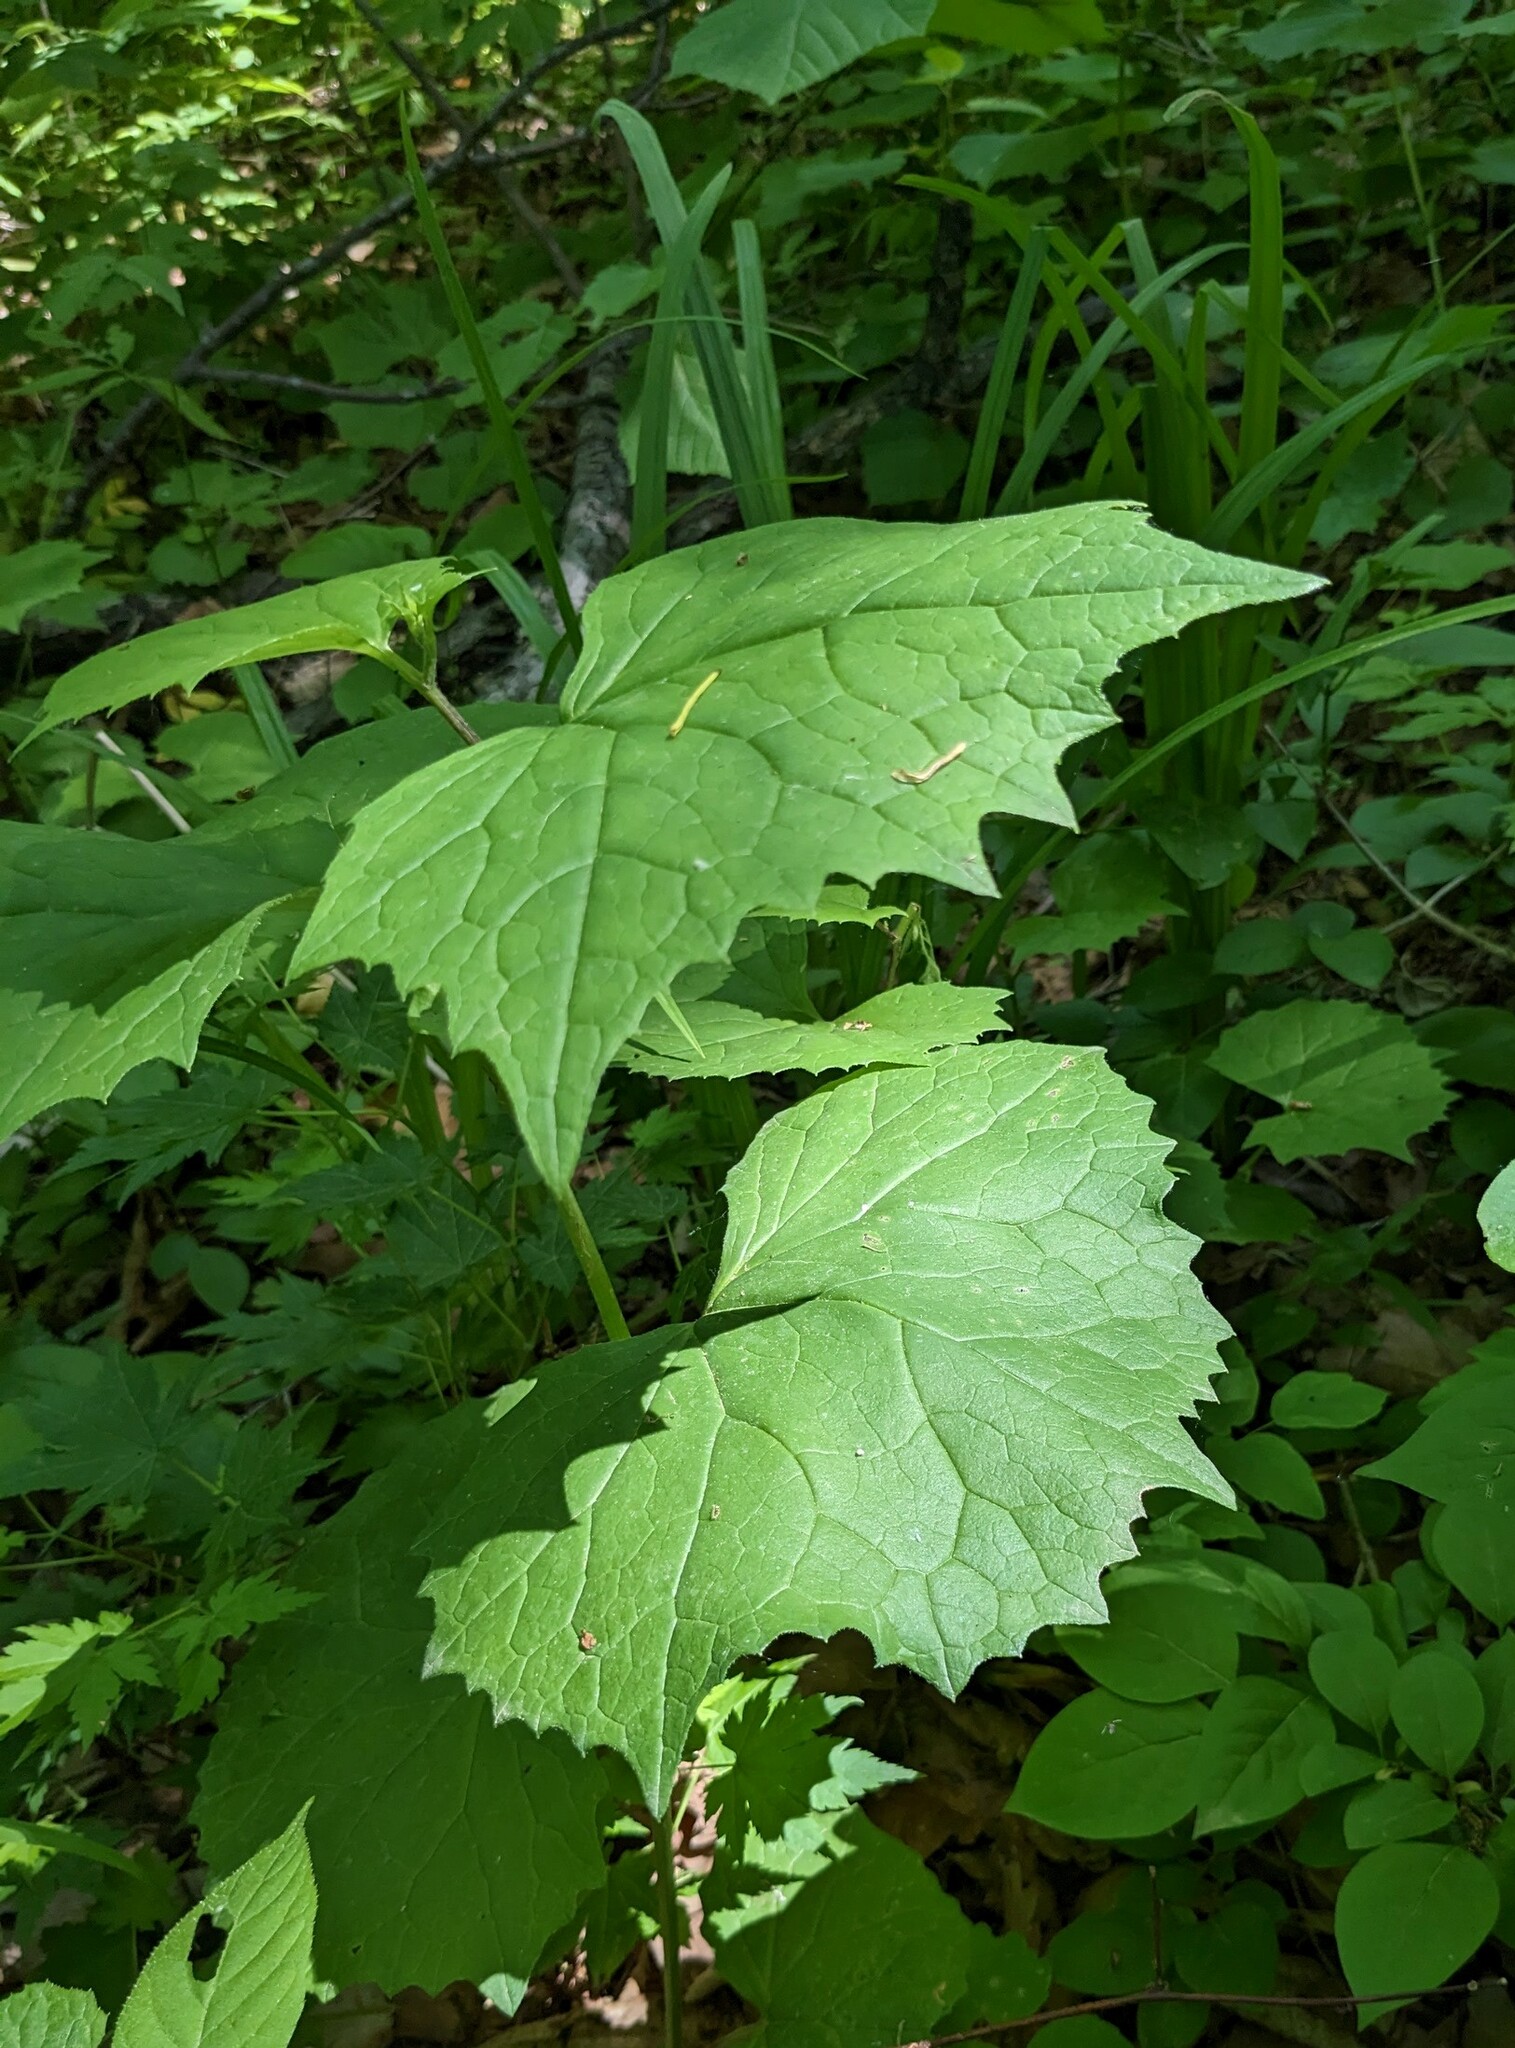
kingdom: Plantae
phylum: Tracheophyta
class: Magnoliopsida
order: Asterales
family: Asteraceae
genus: Parasenecio
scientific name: Parasenecio praetermissus
